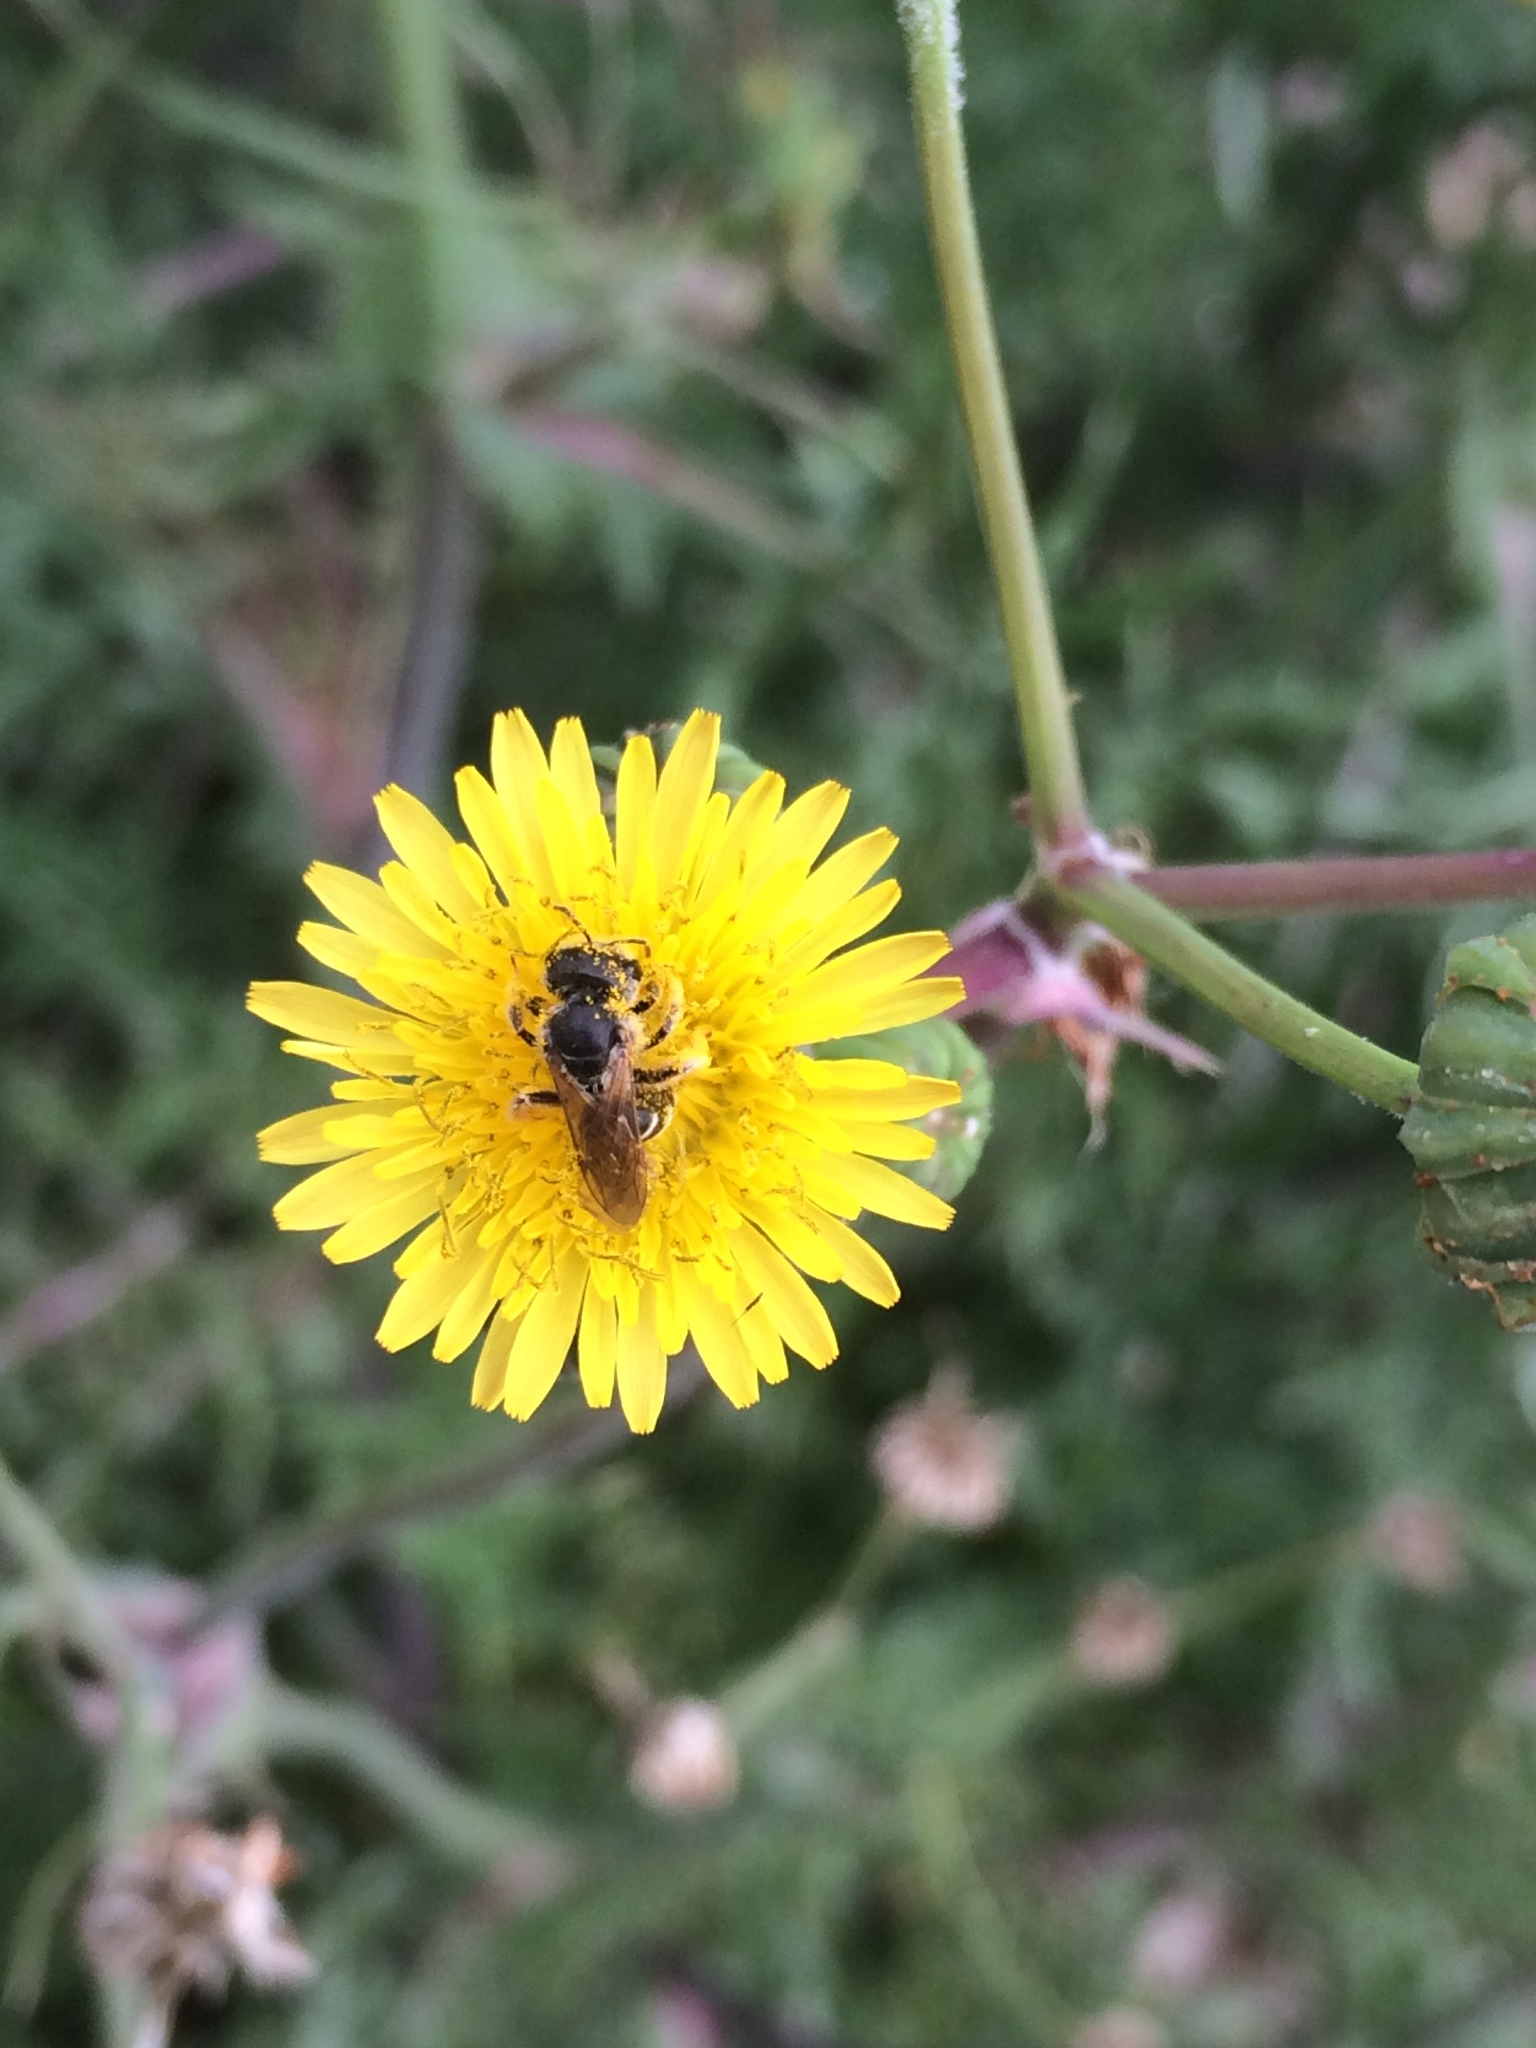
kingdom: Animalia
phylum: Arthropoda
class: Insecta
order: Hymenoptera
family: Halictidae
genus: Halictus
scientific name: Halictus ligatus
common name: Ligated furrow bee
